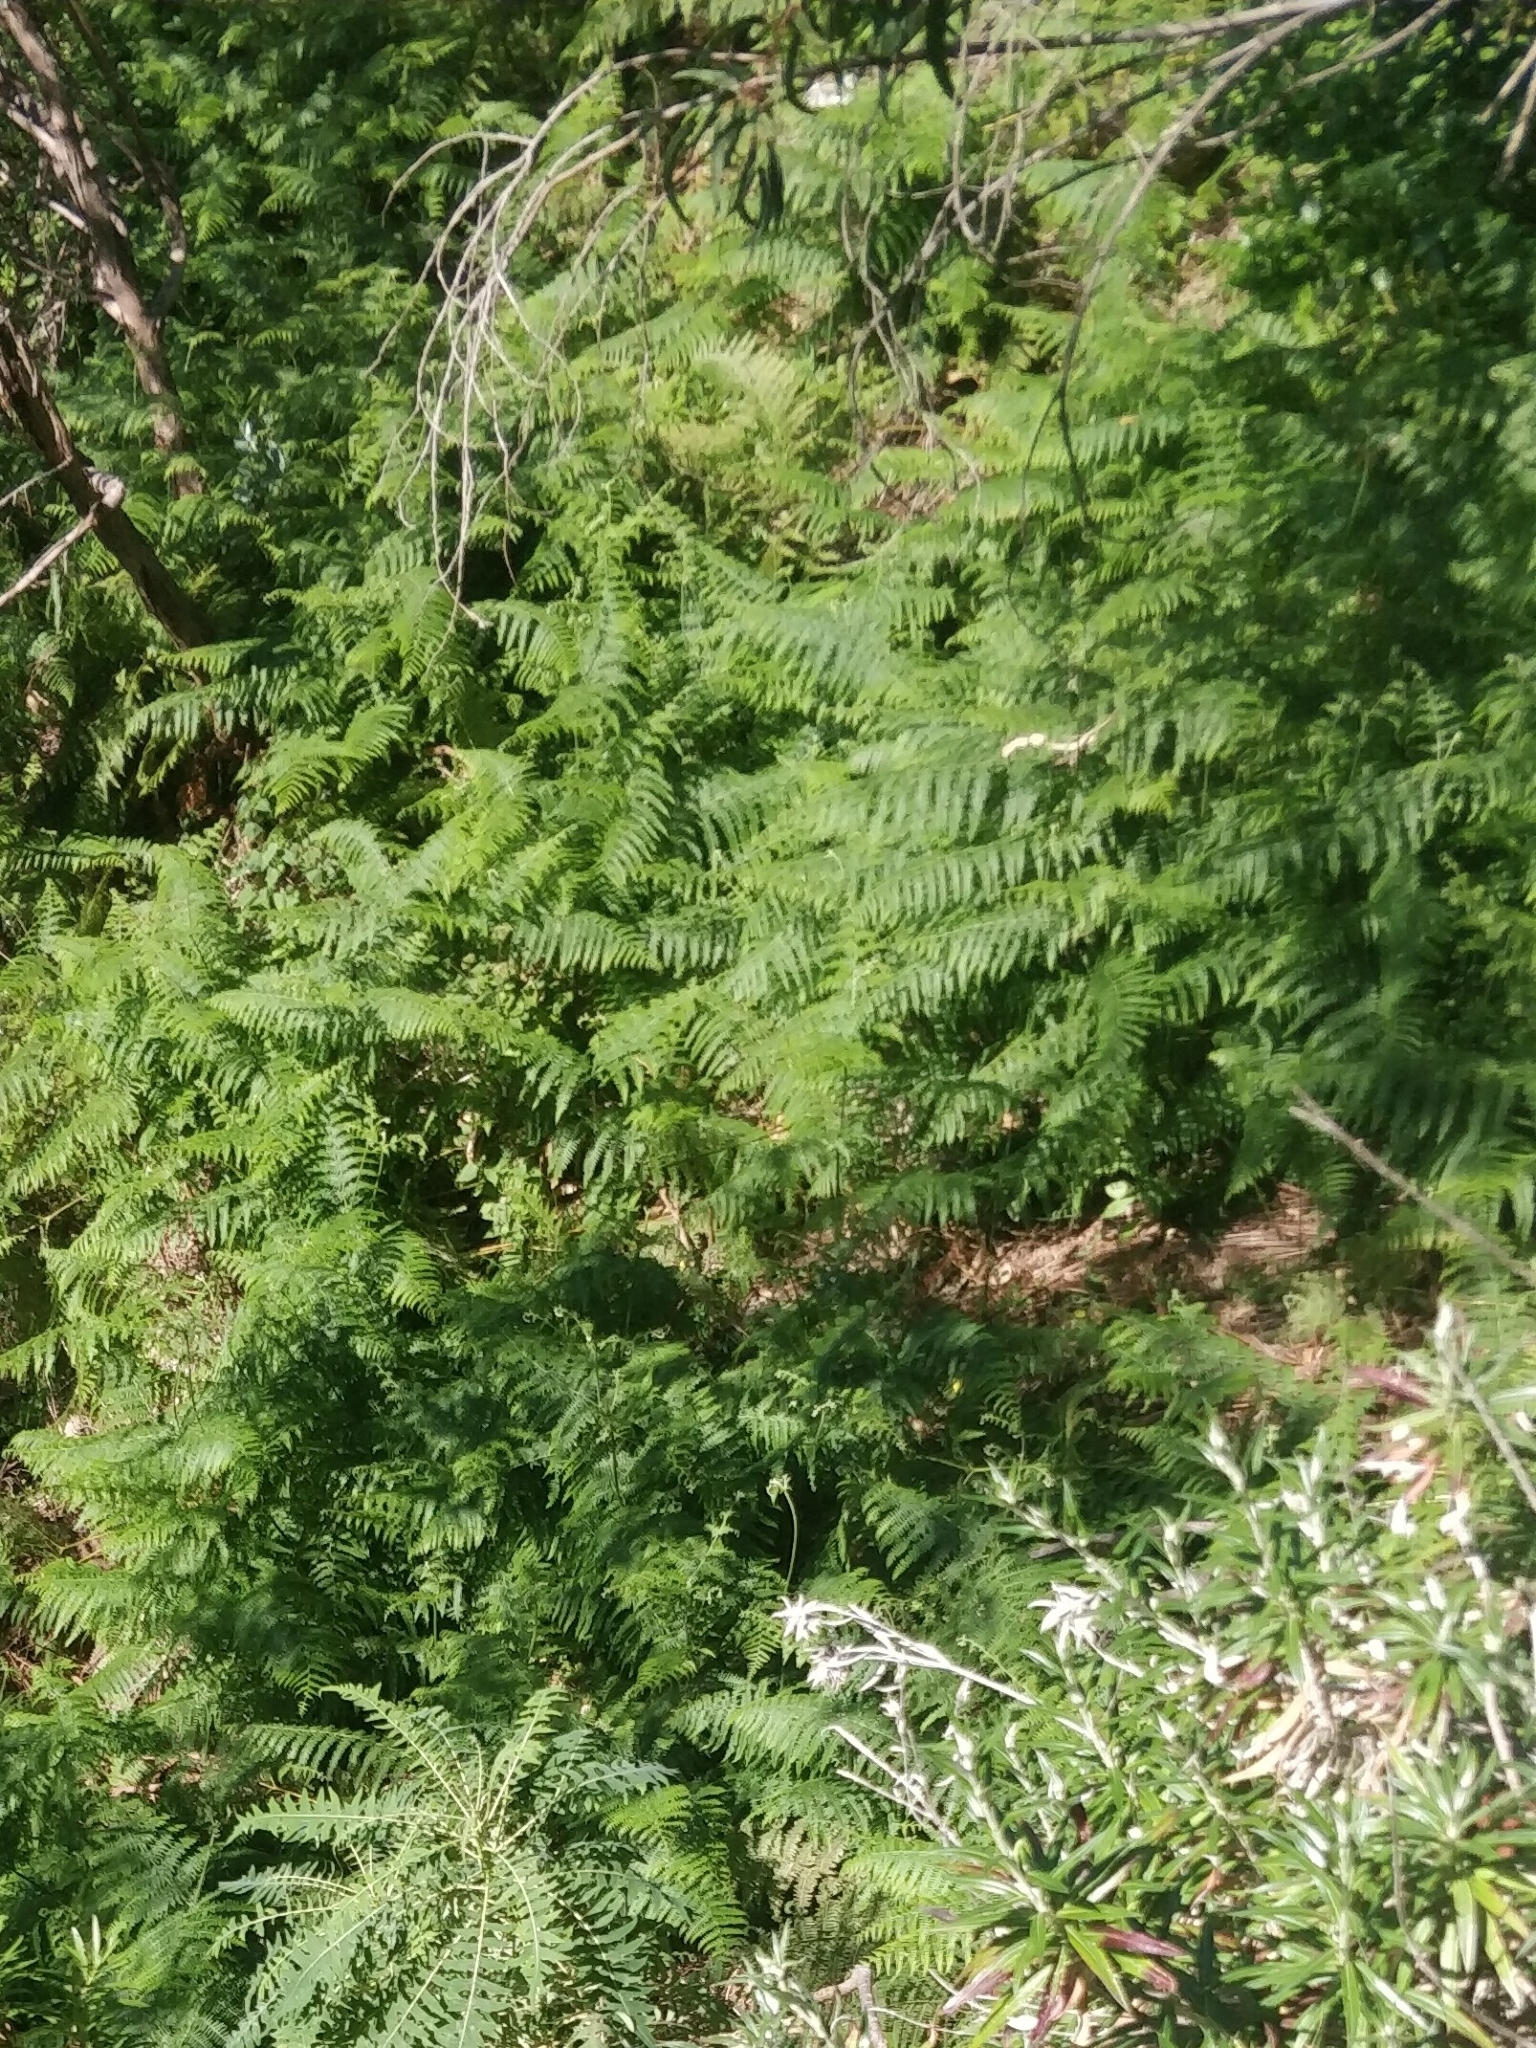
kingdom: Plantae
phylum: Tracheophyta
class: Polypodiopsida
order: Polypodiales
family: Dennstaedtiaceae
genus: Pteridium
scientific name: Pteridium aquilinum
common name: Bracken
